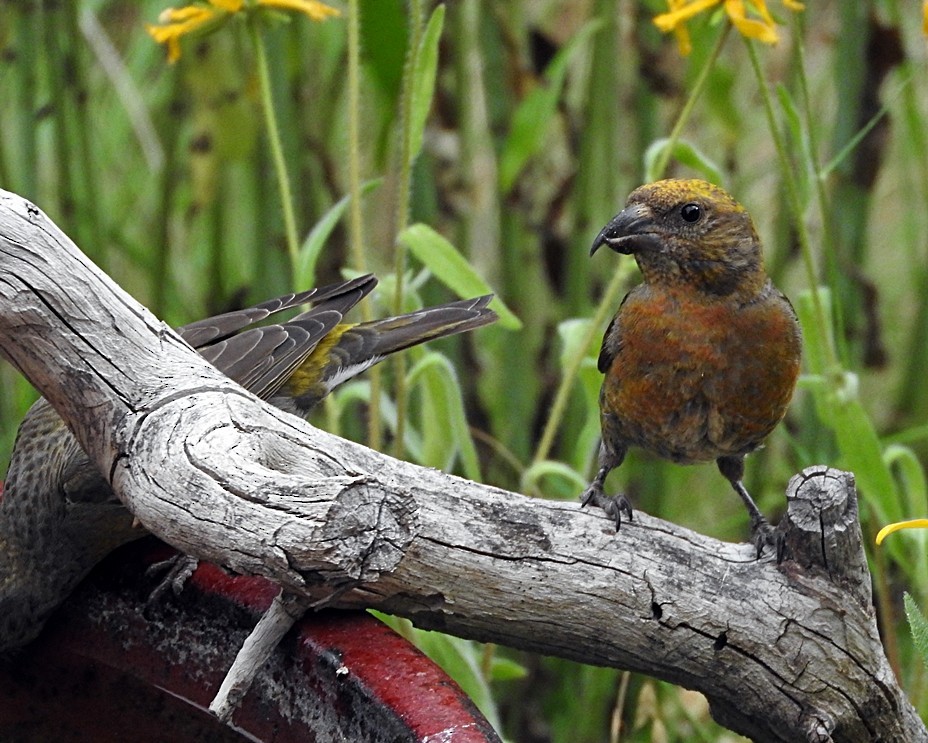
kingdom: Animalia
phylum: Chordata
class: Aves
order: Passeriformes
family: Fringillidae
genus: Loxia
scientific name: Loxia curvirostra
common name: Red crossbill
